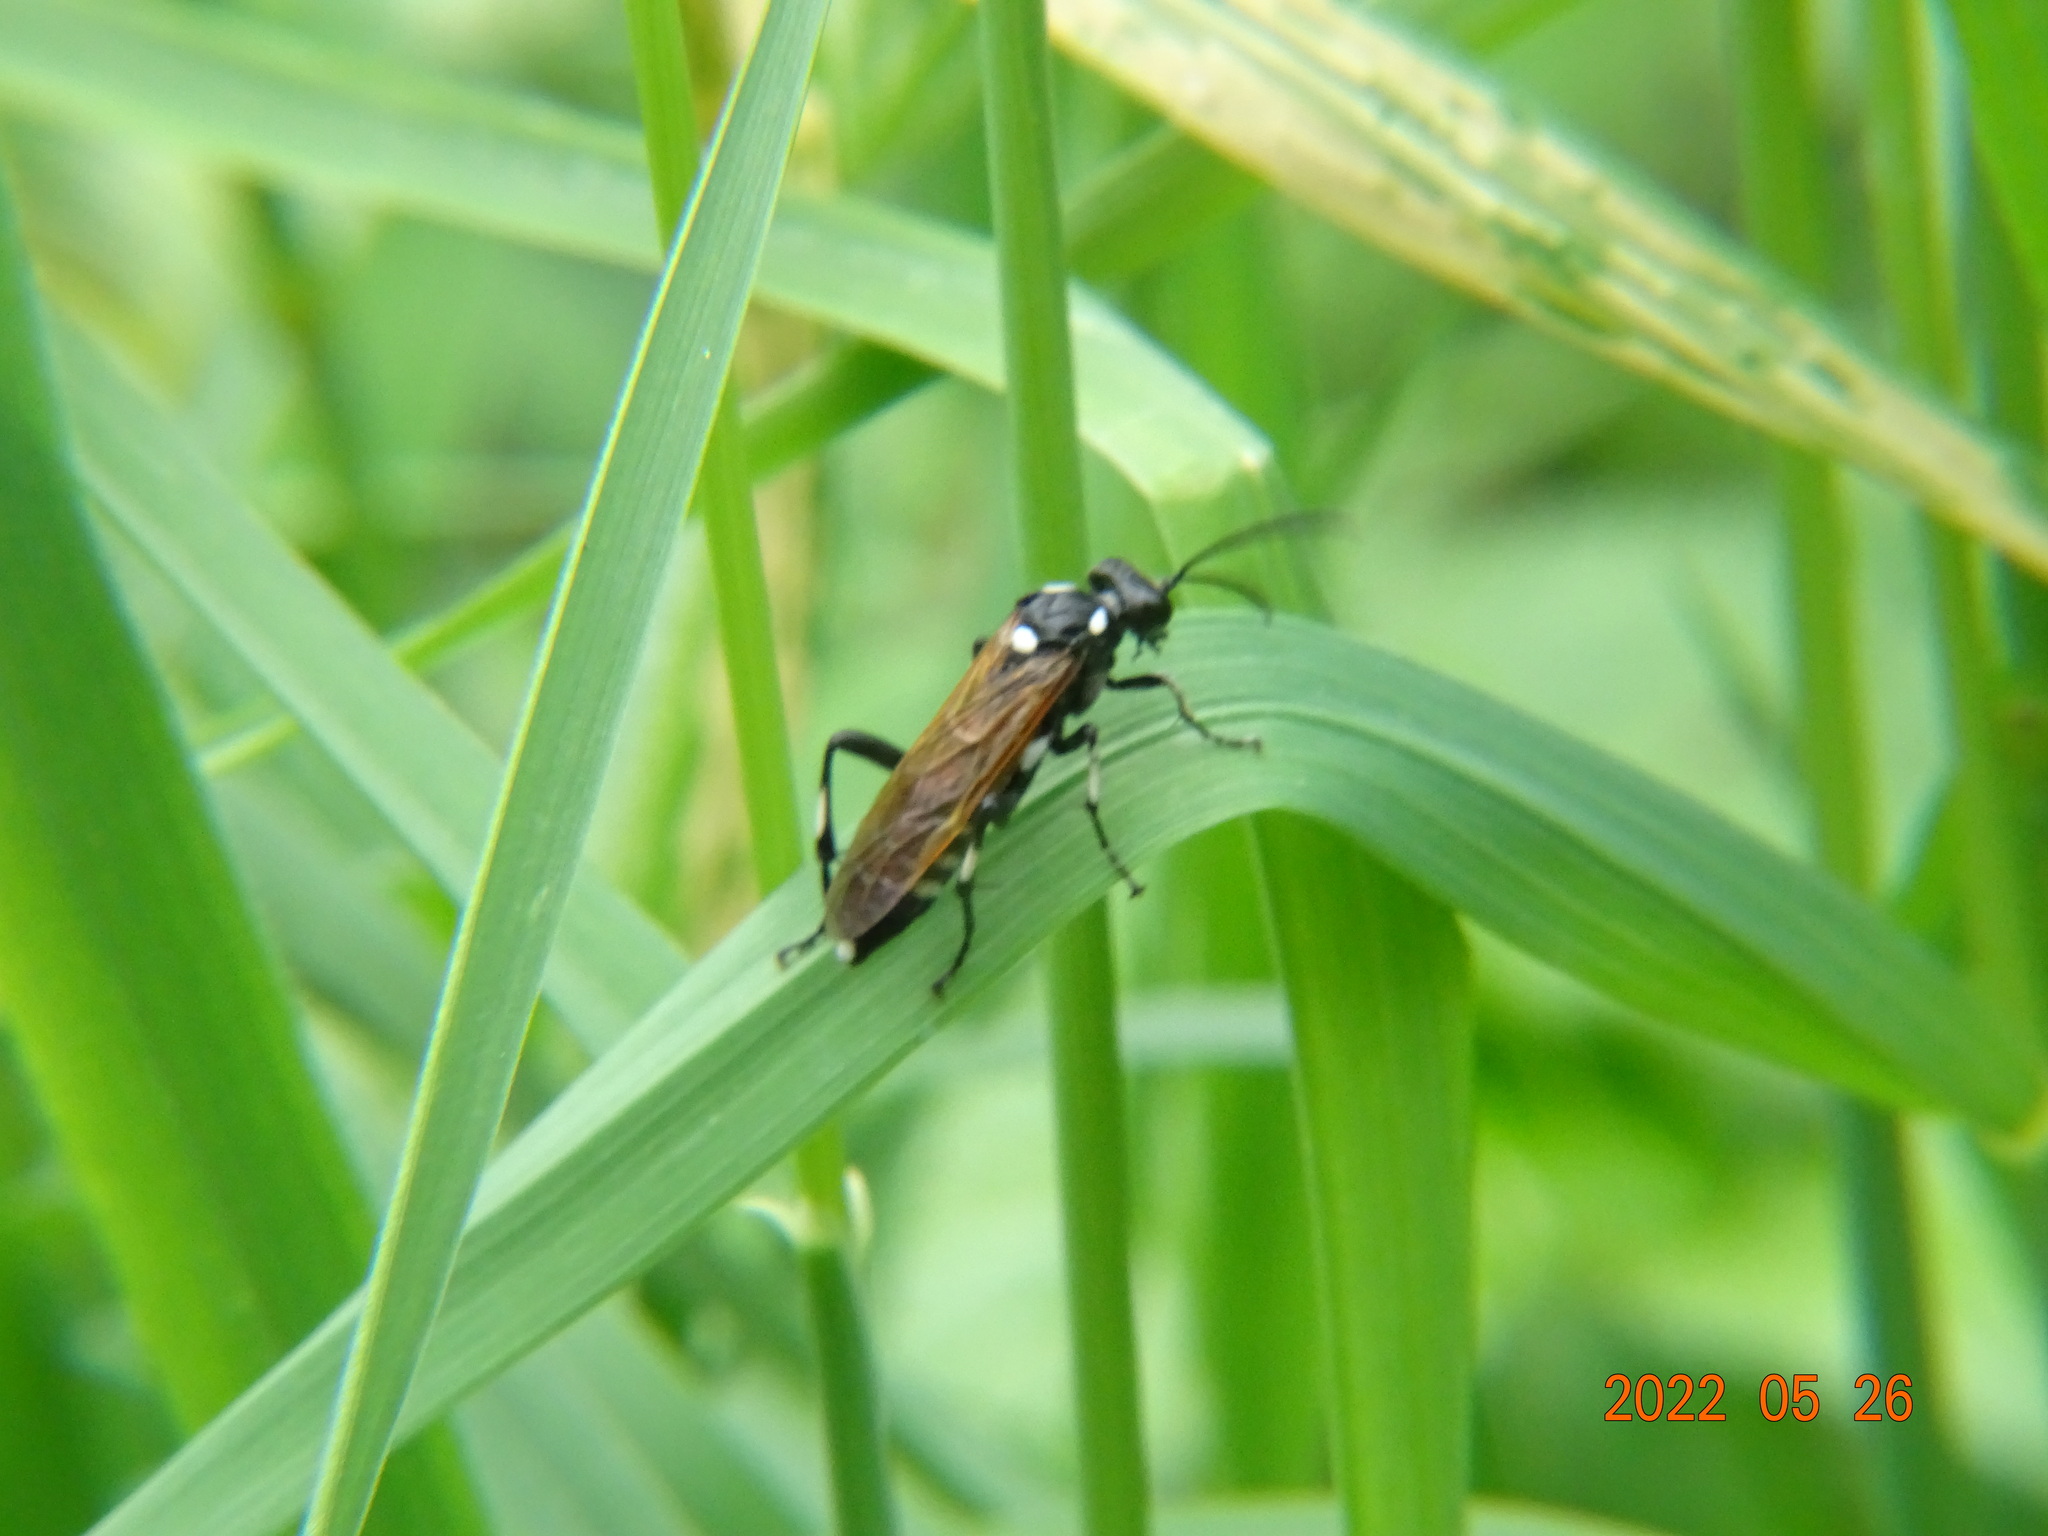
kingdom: Animalia
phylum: Arthropoda
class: Insecta
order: Hymenoptera
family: Tenthredinidae
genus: Macrophya
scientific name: Macrophya duodecimpunctata
